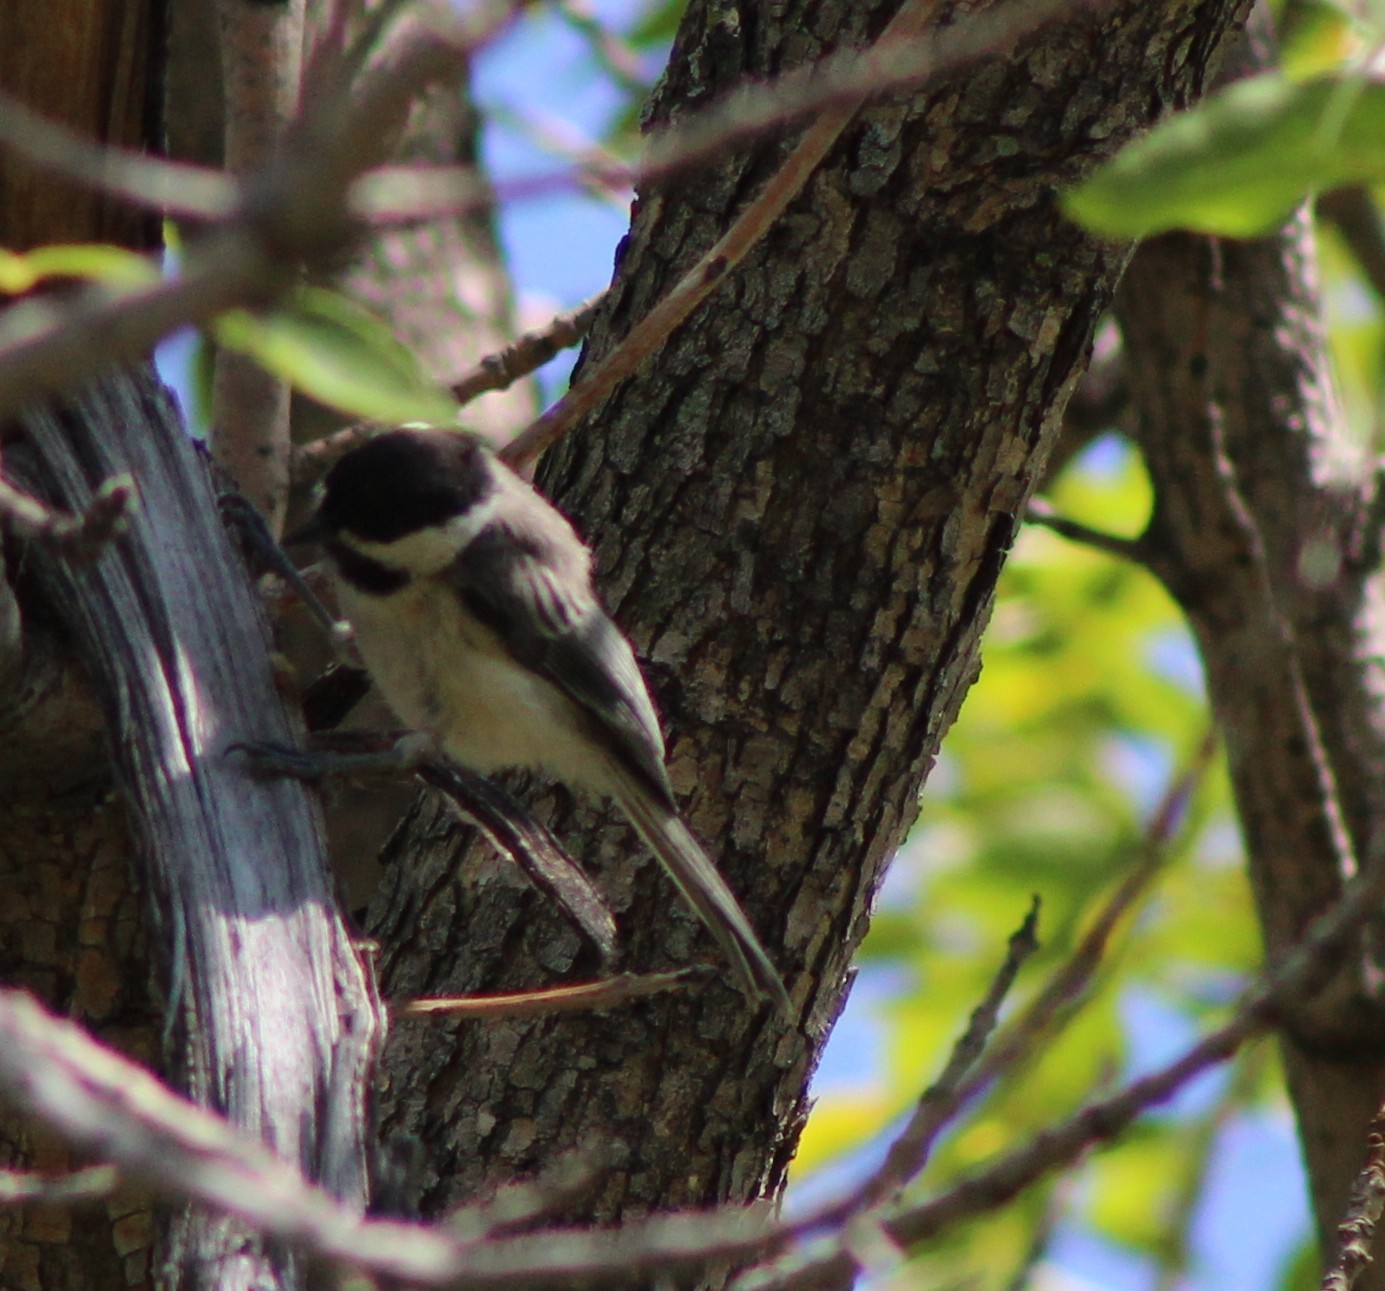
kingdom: Animalia
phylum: Chordata
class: Aves
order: Passeriformes
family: Paridae
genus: Poecile
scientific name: Poecile atricapillus
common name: Black-capped chickadee
